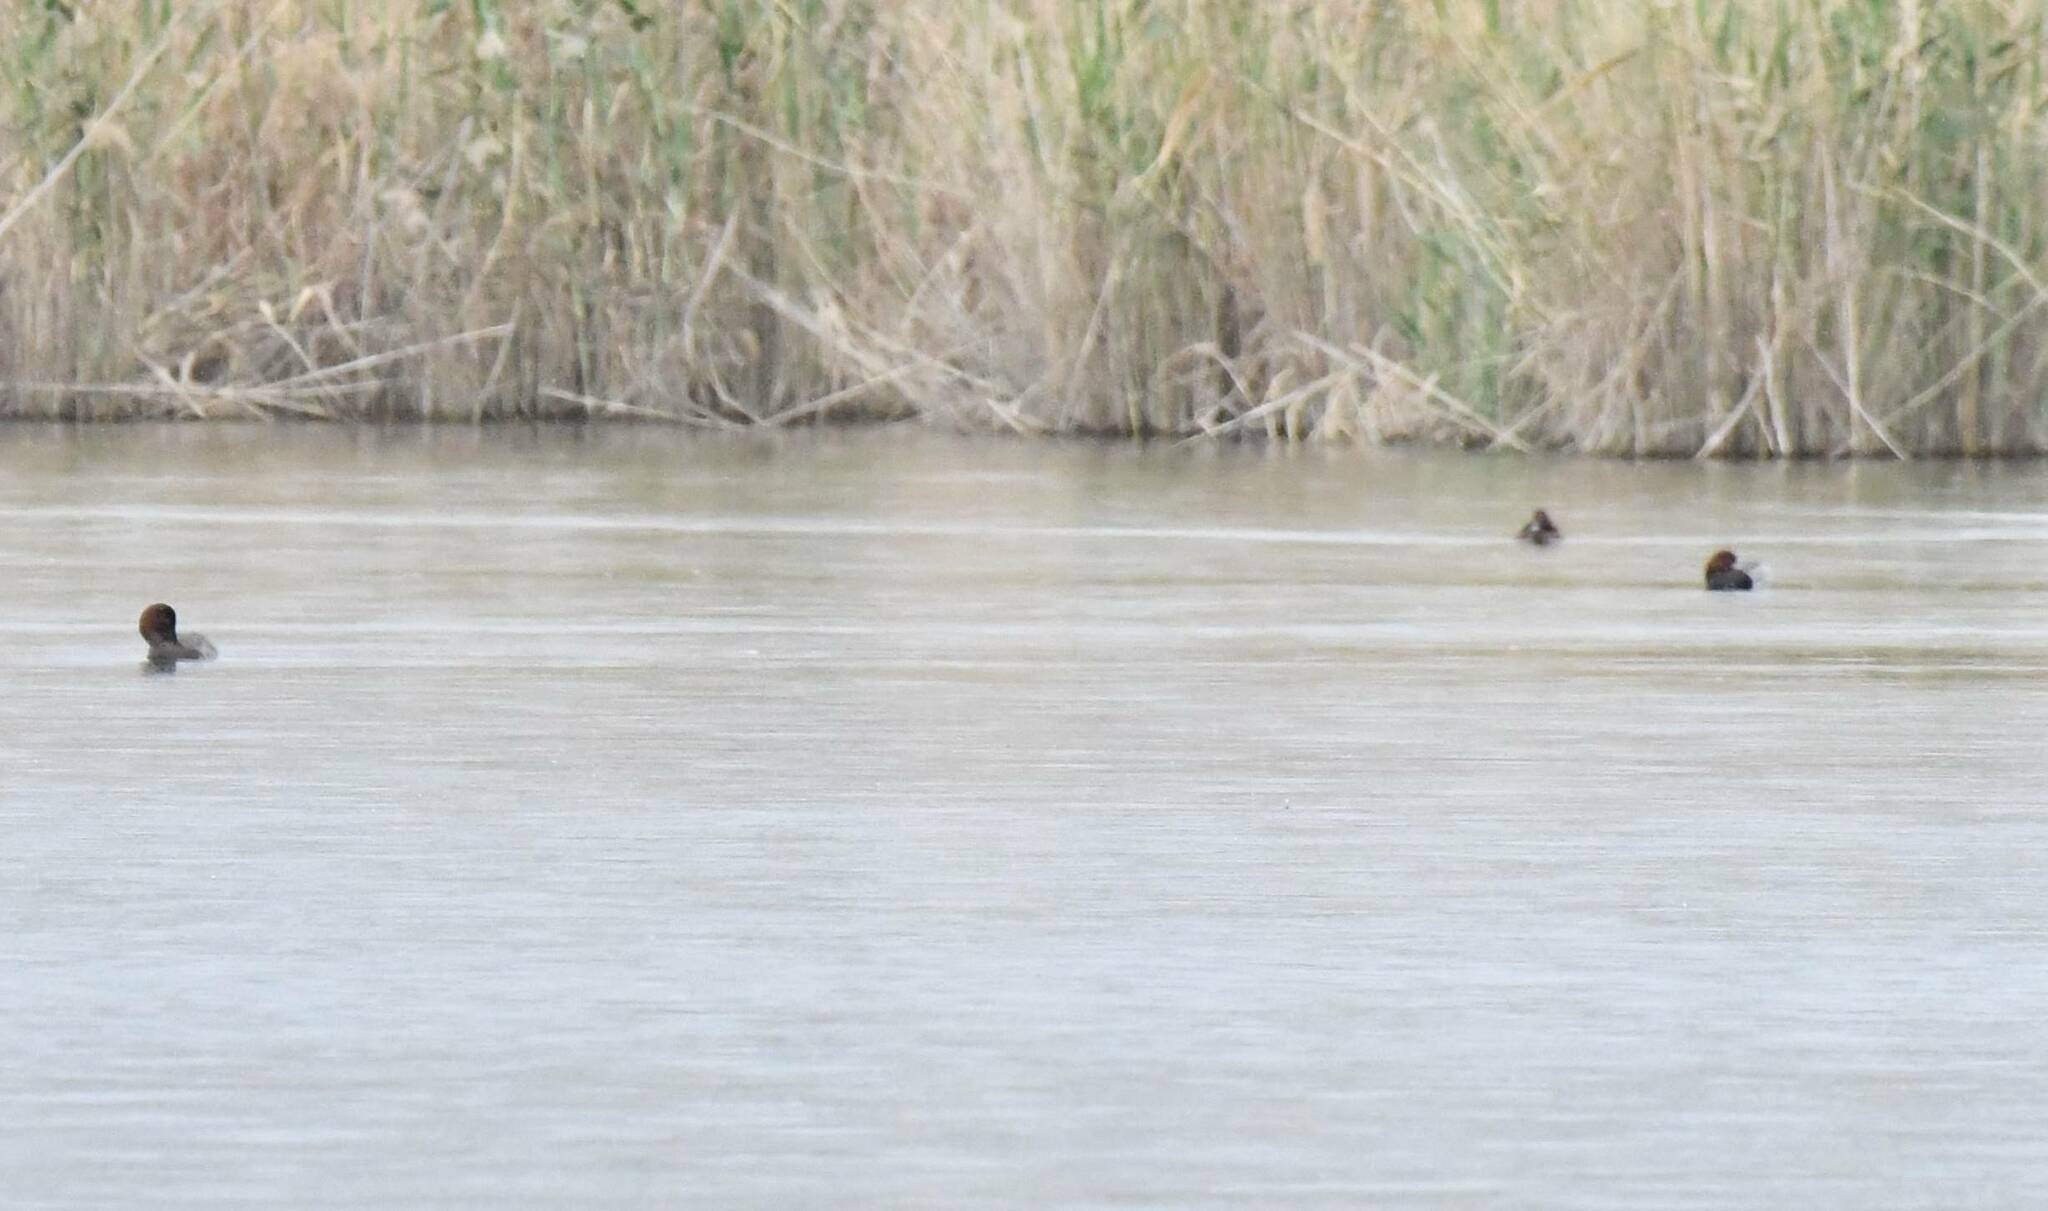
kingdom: Animalia
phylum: Chordata
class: Aves
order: Anseriformes
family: Anatidae
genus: Aythya
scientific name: Aythya ferina
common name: Common pochard
